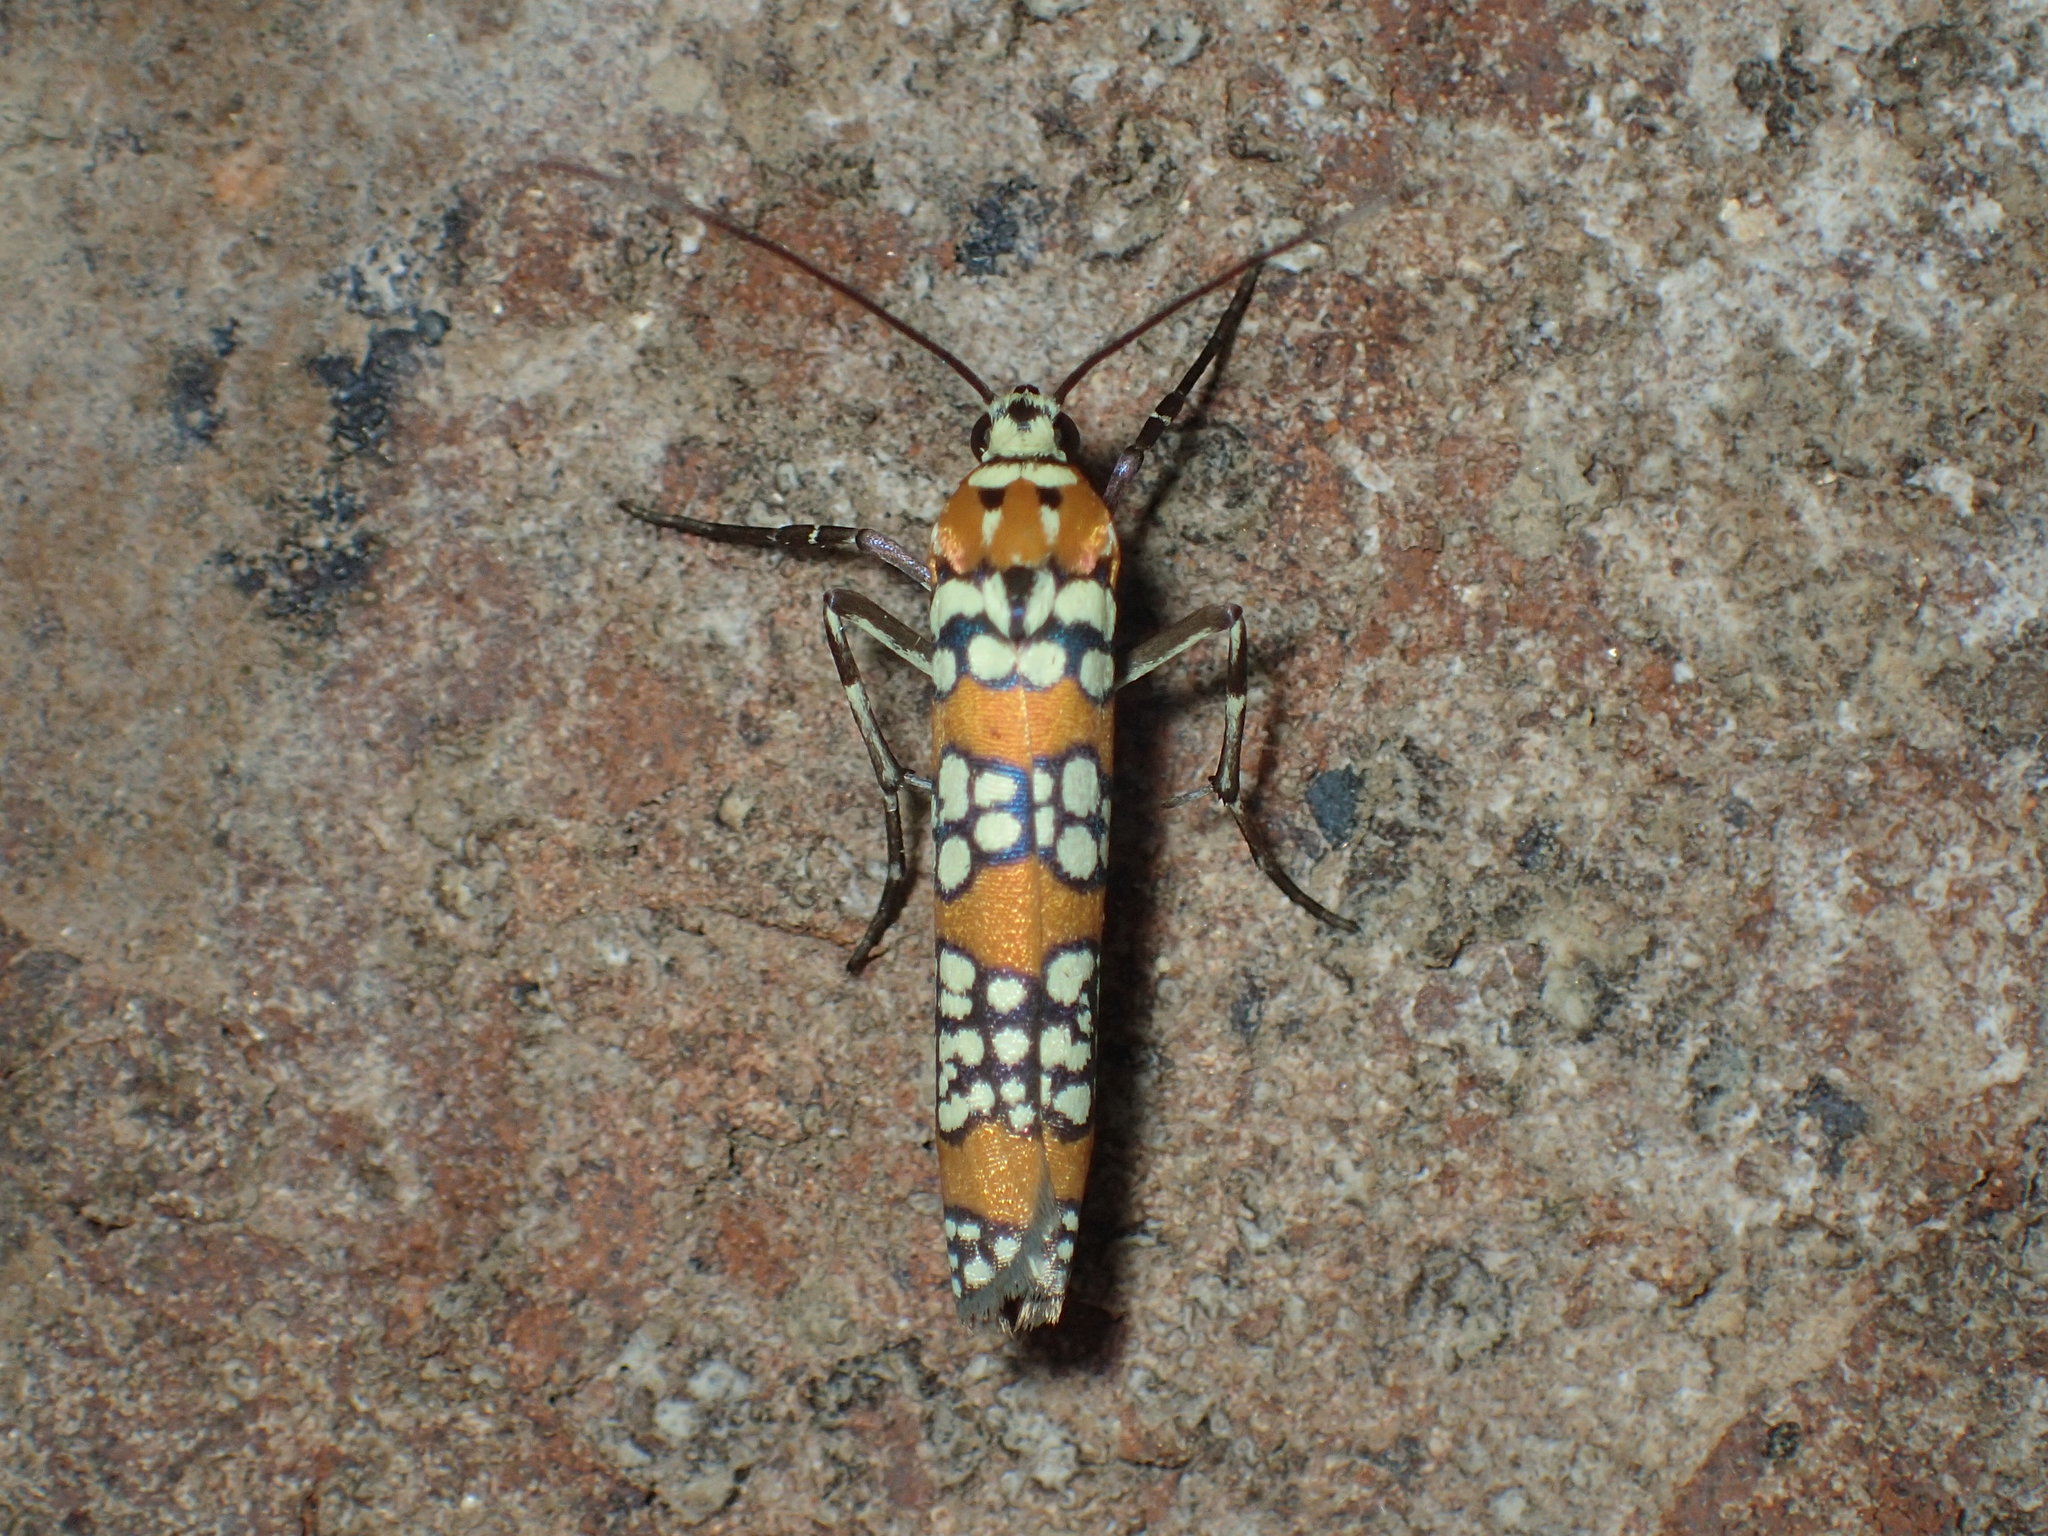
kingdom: Animalia
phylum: Arthropoda
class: Insecta
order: Lepidoptera
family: Attevidae
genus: Atteva
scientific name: Atteva punctella
